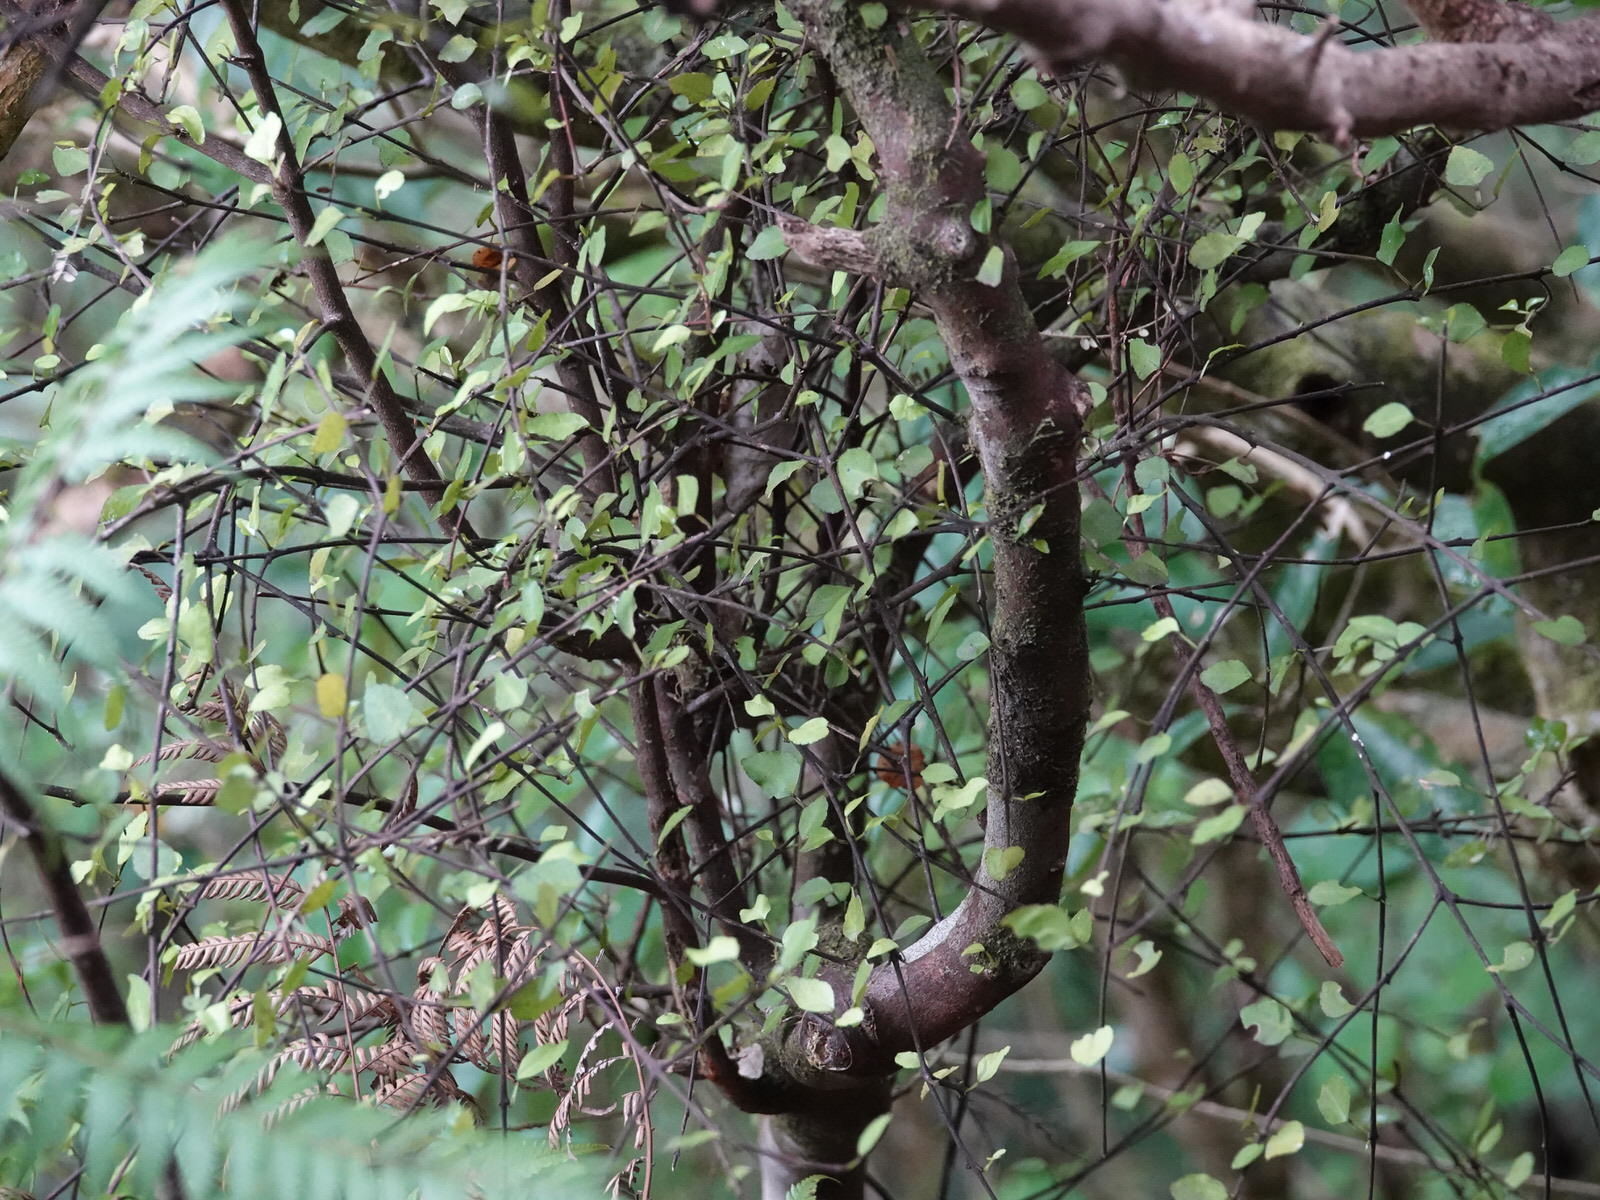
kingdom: Plantae
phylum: Tracheophyta
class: Magnoliopsida
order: Sapindales
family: Rutaceae
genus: Melicope
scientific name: Melicope simplex
